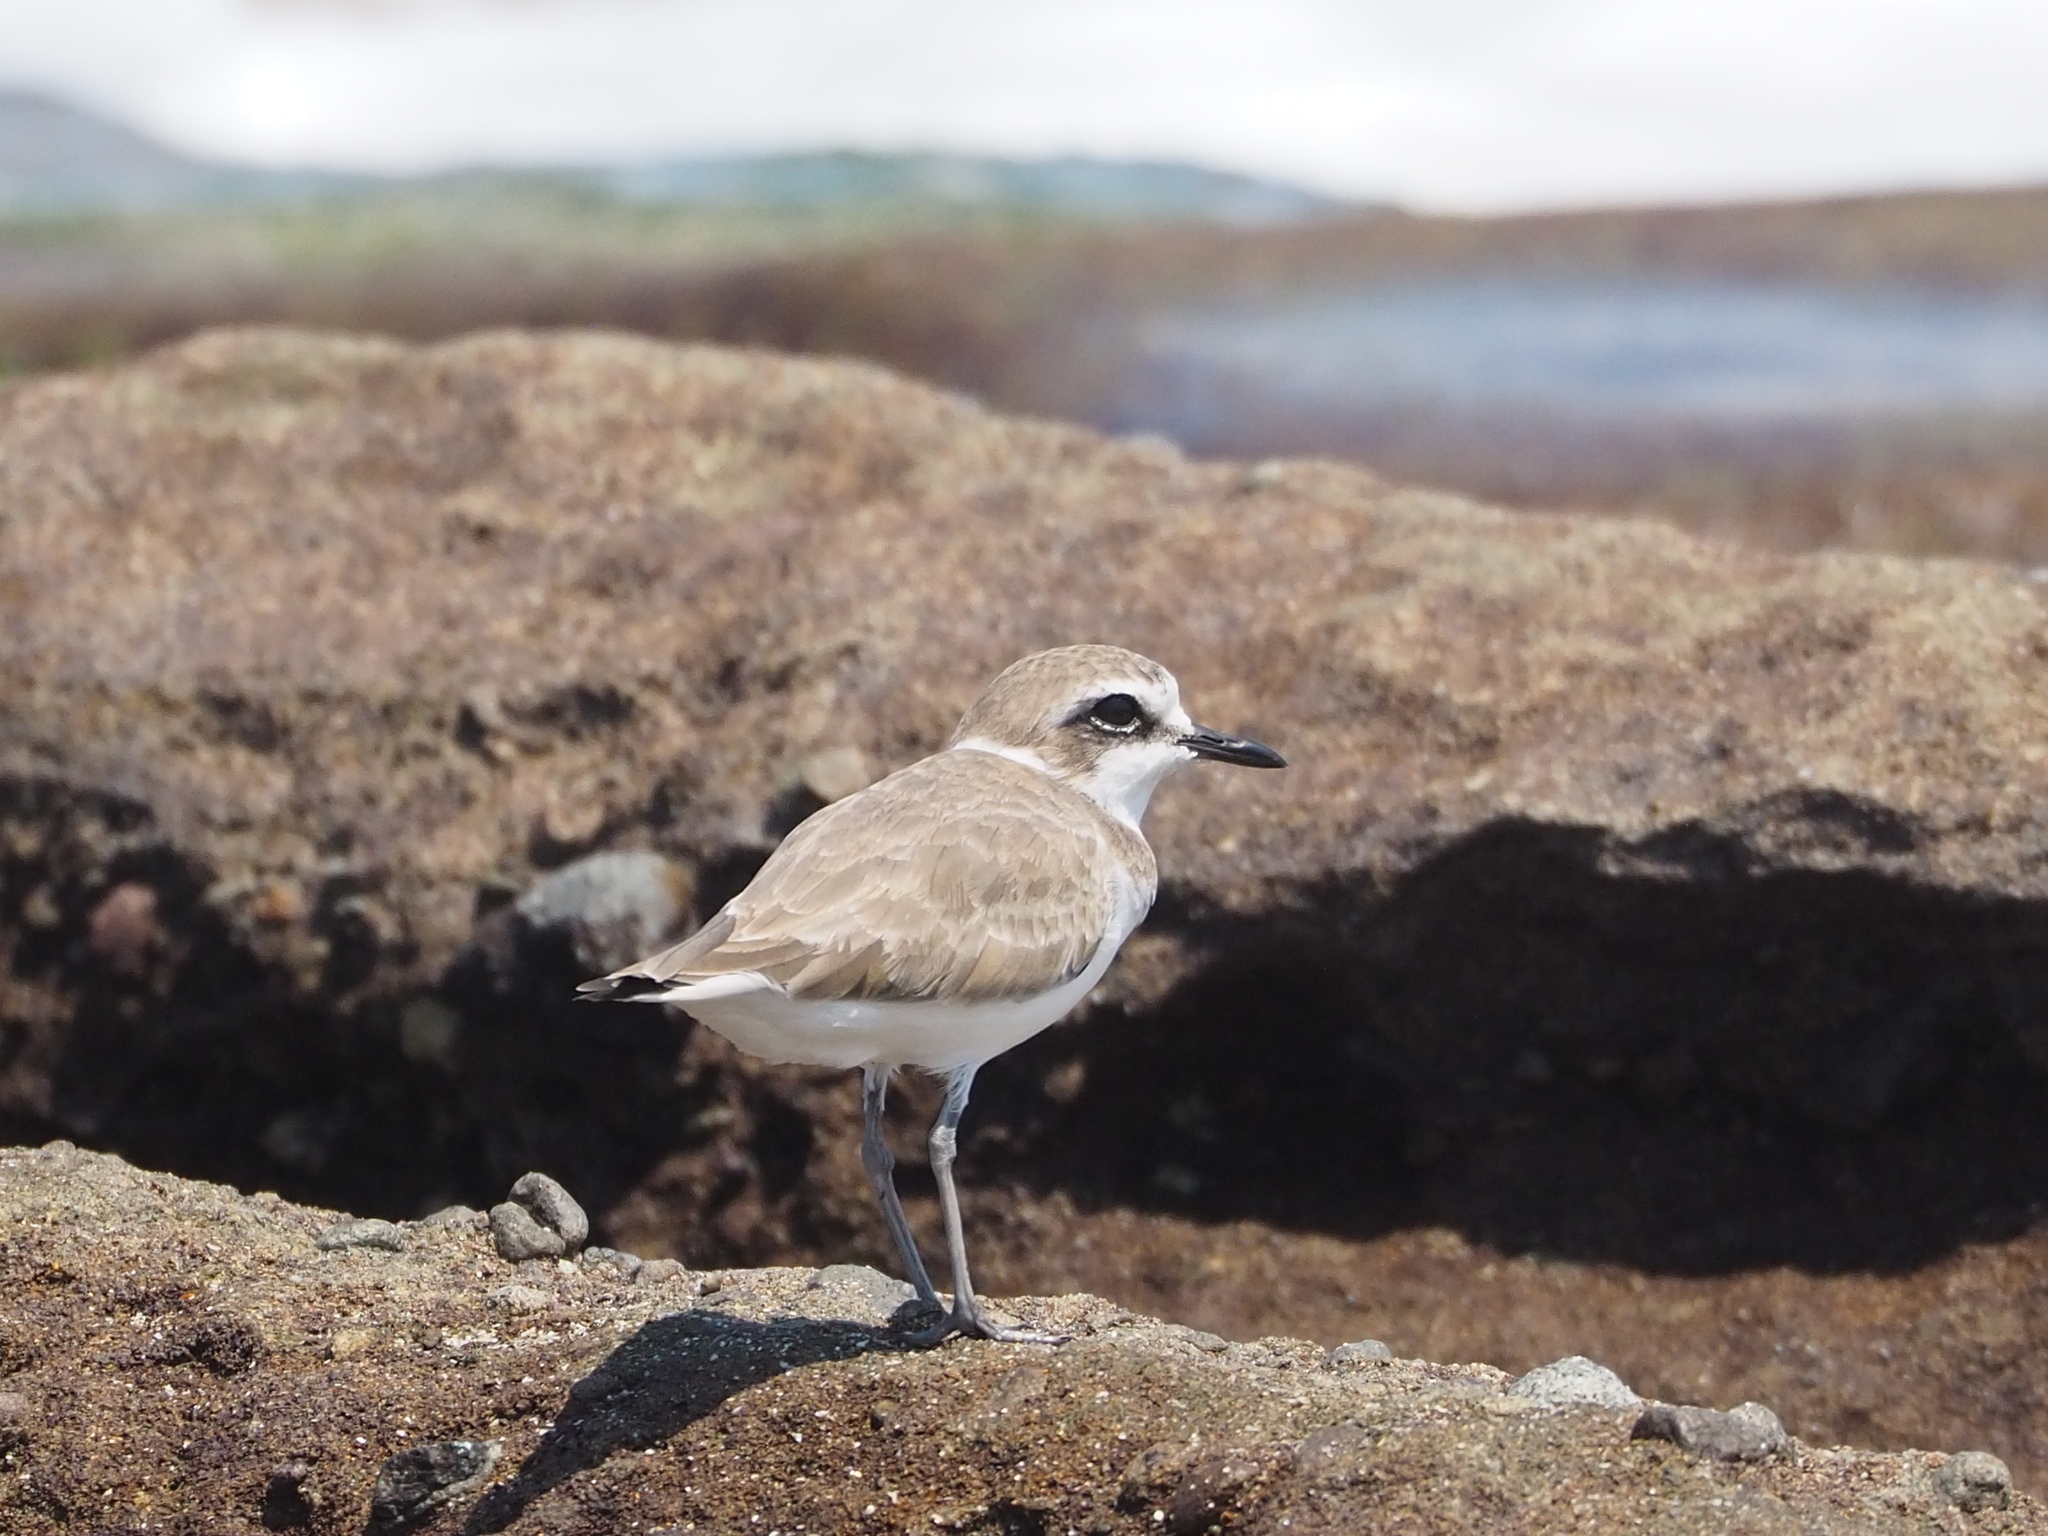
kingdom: Animalia
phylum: Chordata
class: Aves
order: Charadriiformes
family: Charadriidae
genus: Charadrius
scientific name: Charadrius alexandrinus
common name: Kentish plover
